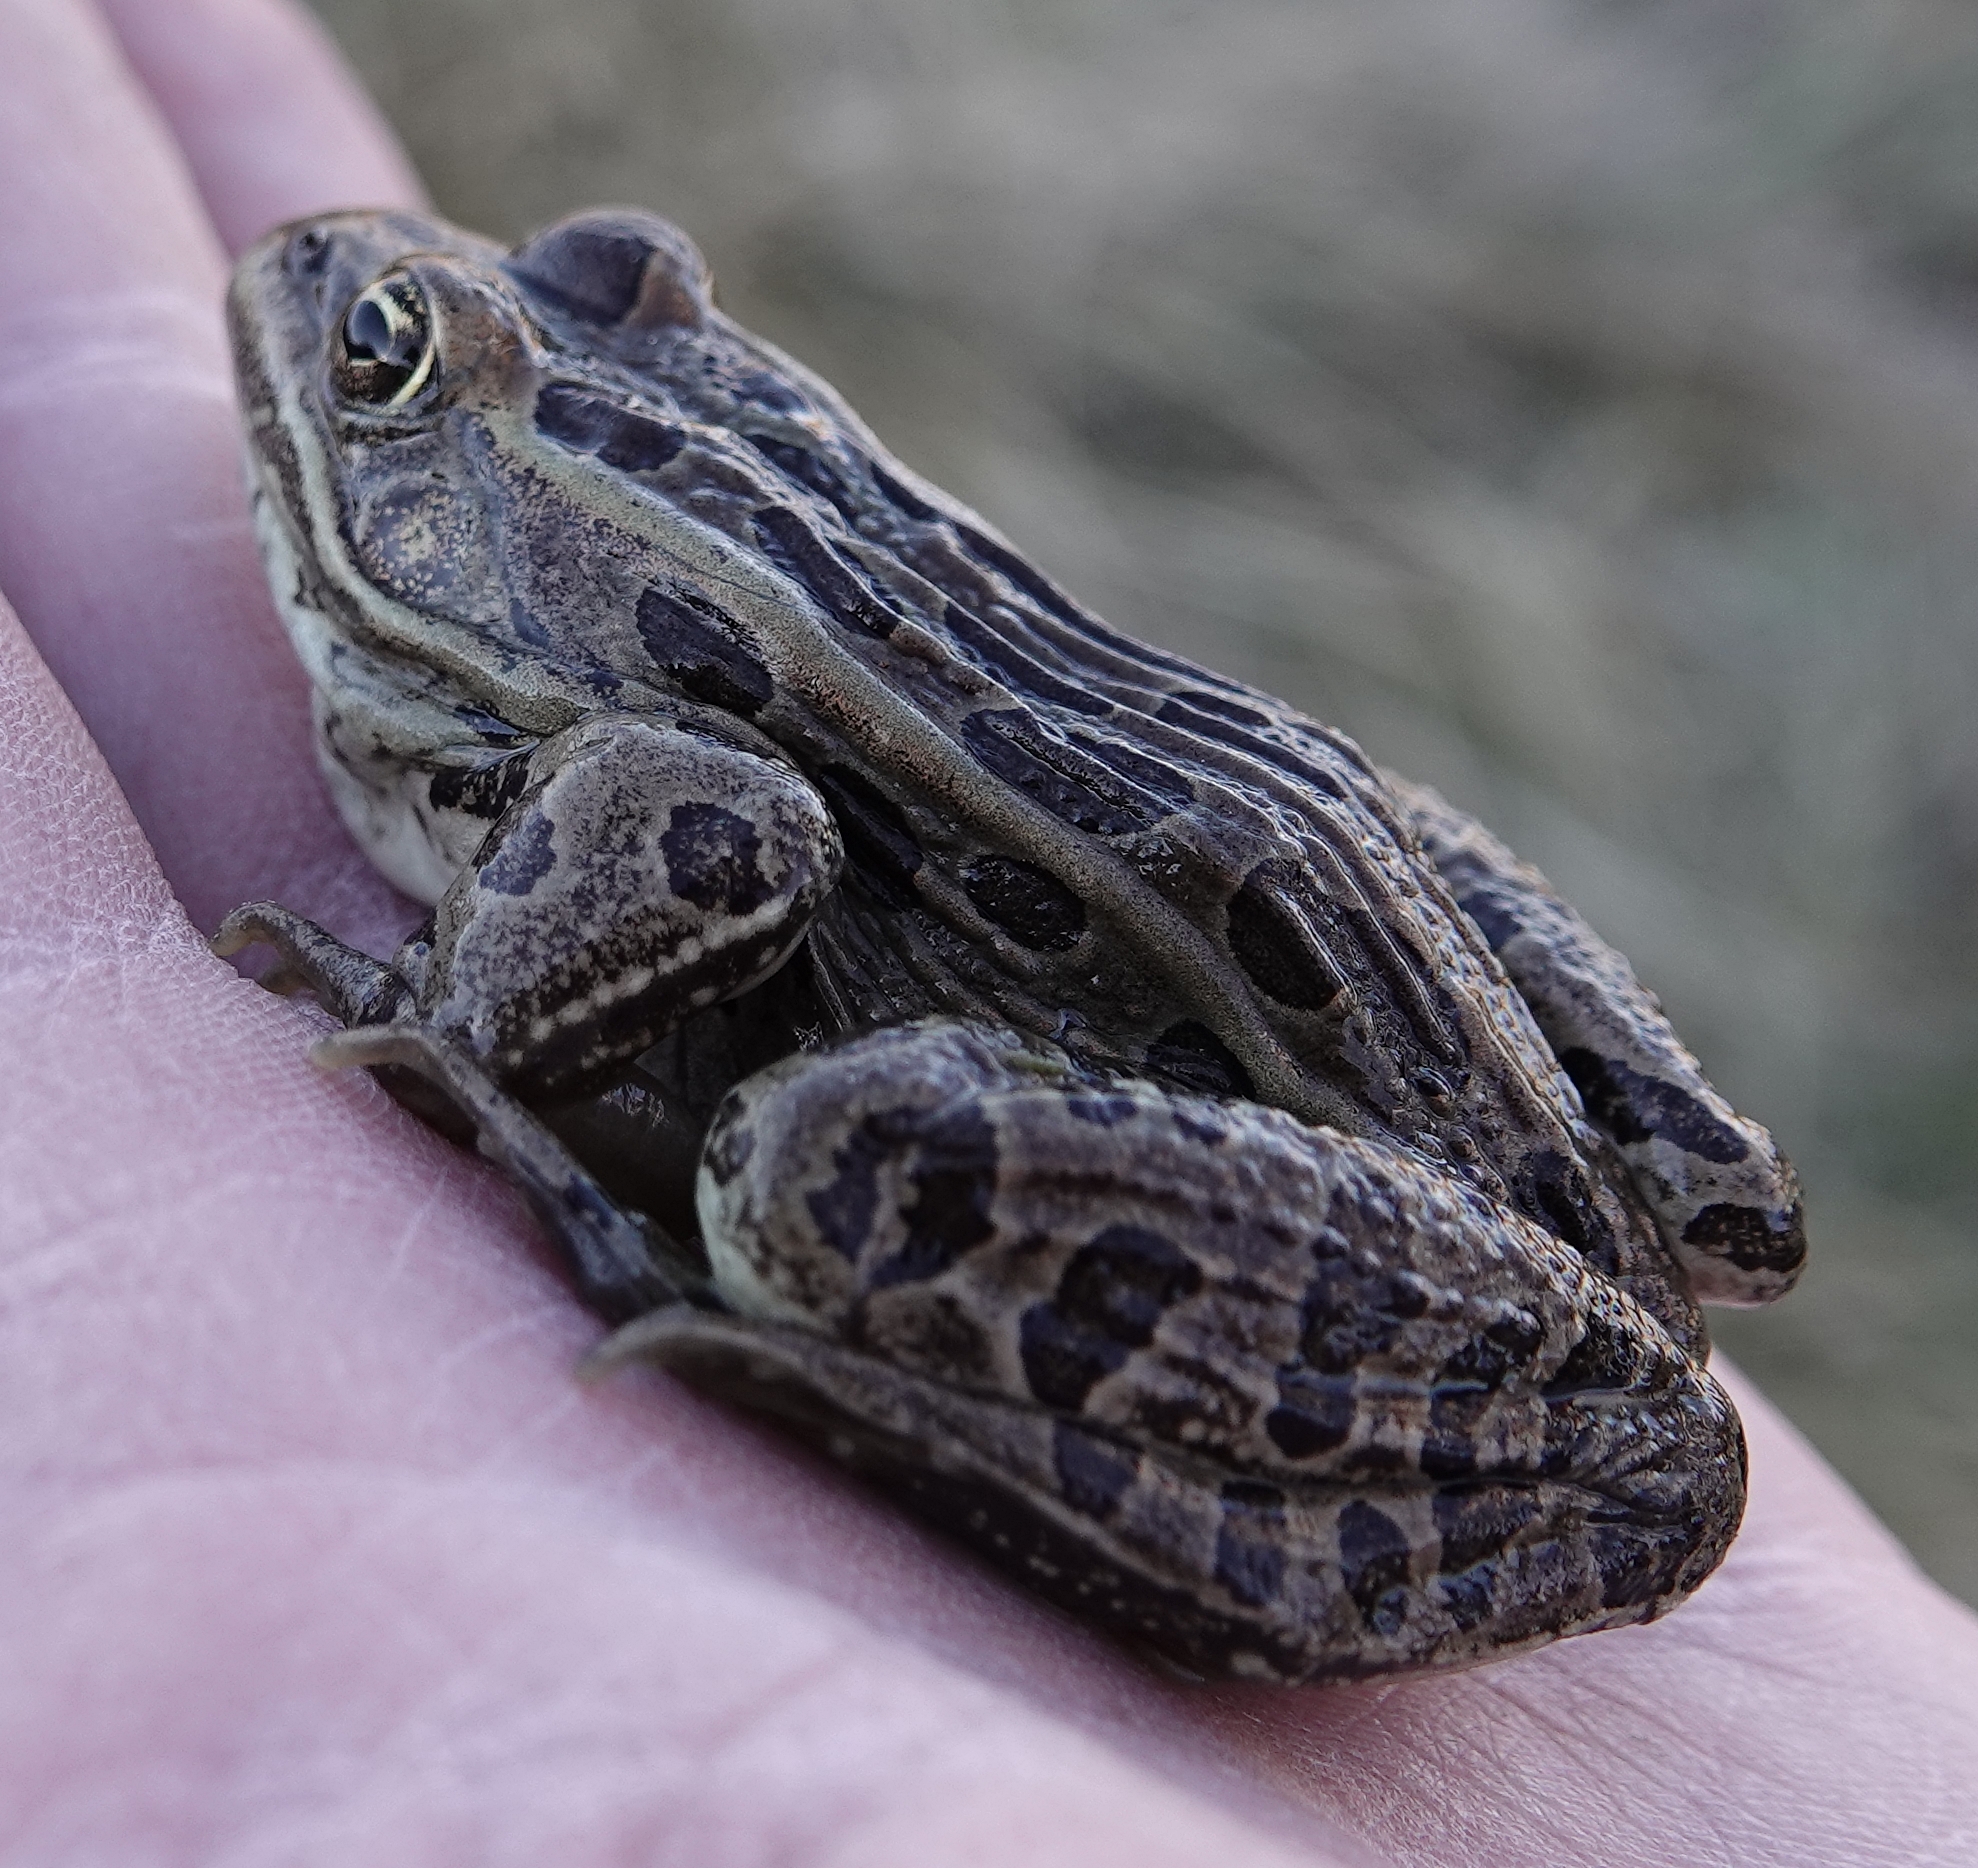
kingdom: Animalia
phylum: Chordata
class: Amphibia
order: Anura
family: Ranidae
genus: Lithobates
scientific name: Lithobates pipiens
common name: Northern leopard frog
